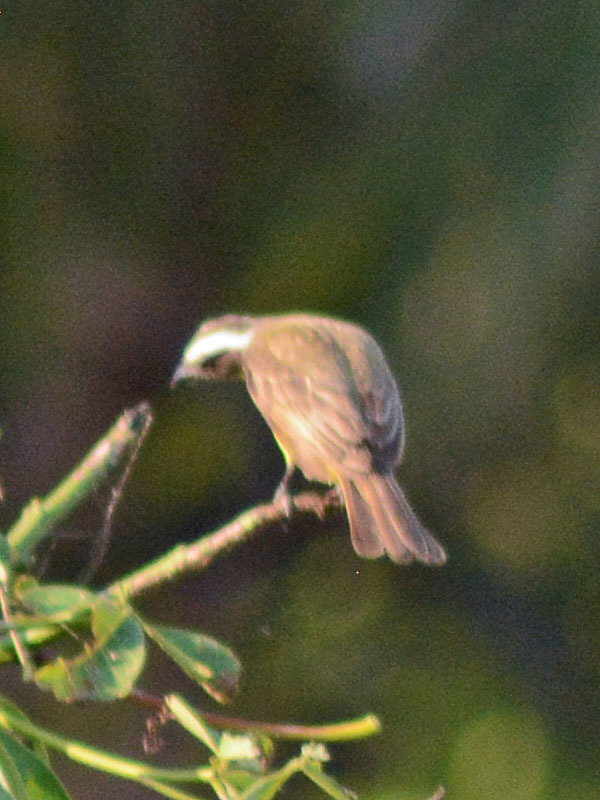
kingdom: Animalia
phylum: Chordata
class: Aves
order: Passeriformes
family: Tyrannidae
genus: Myiozetetes
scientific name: Myiozetetes similis
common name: Social flycatcher
